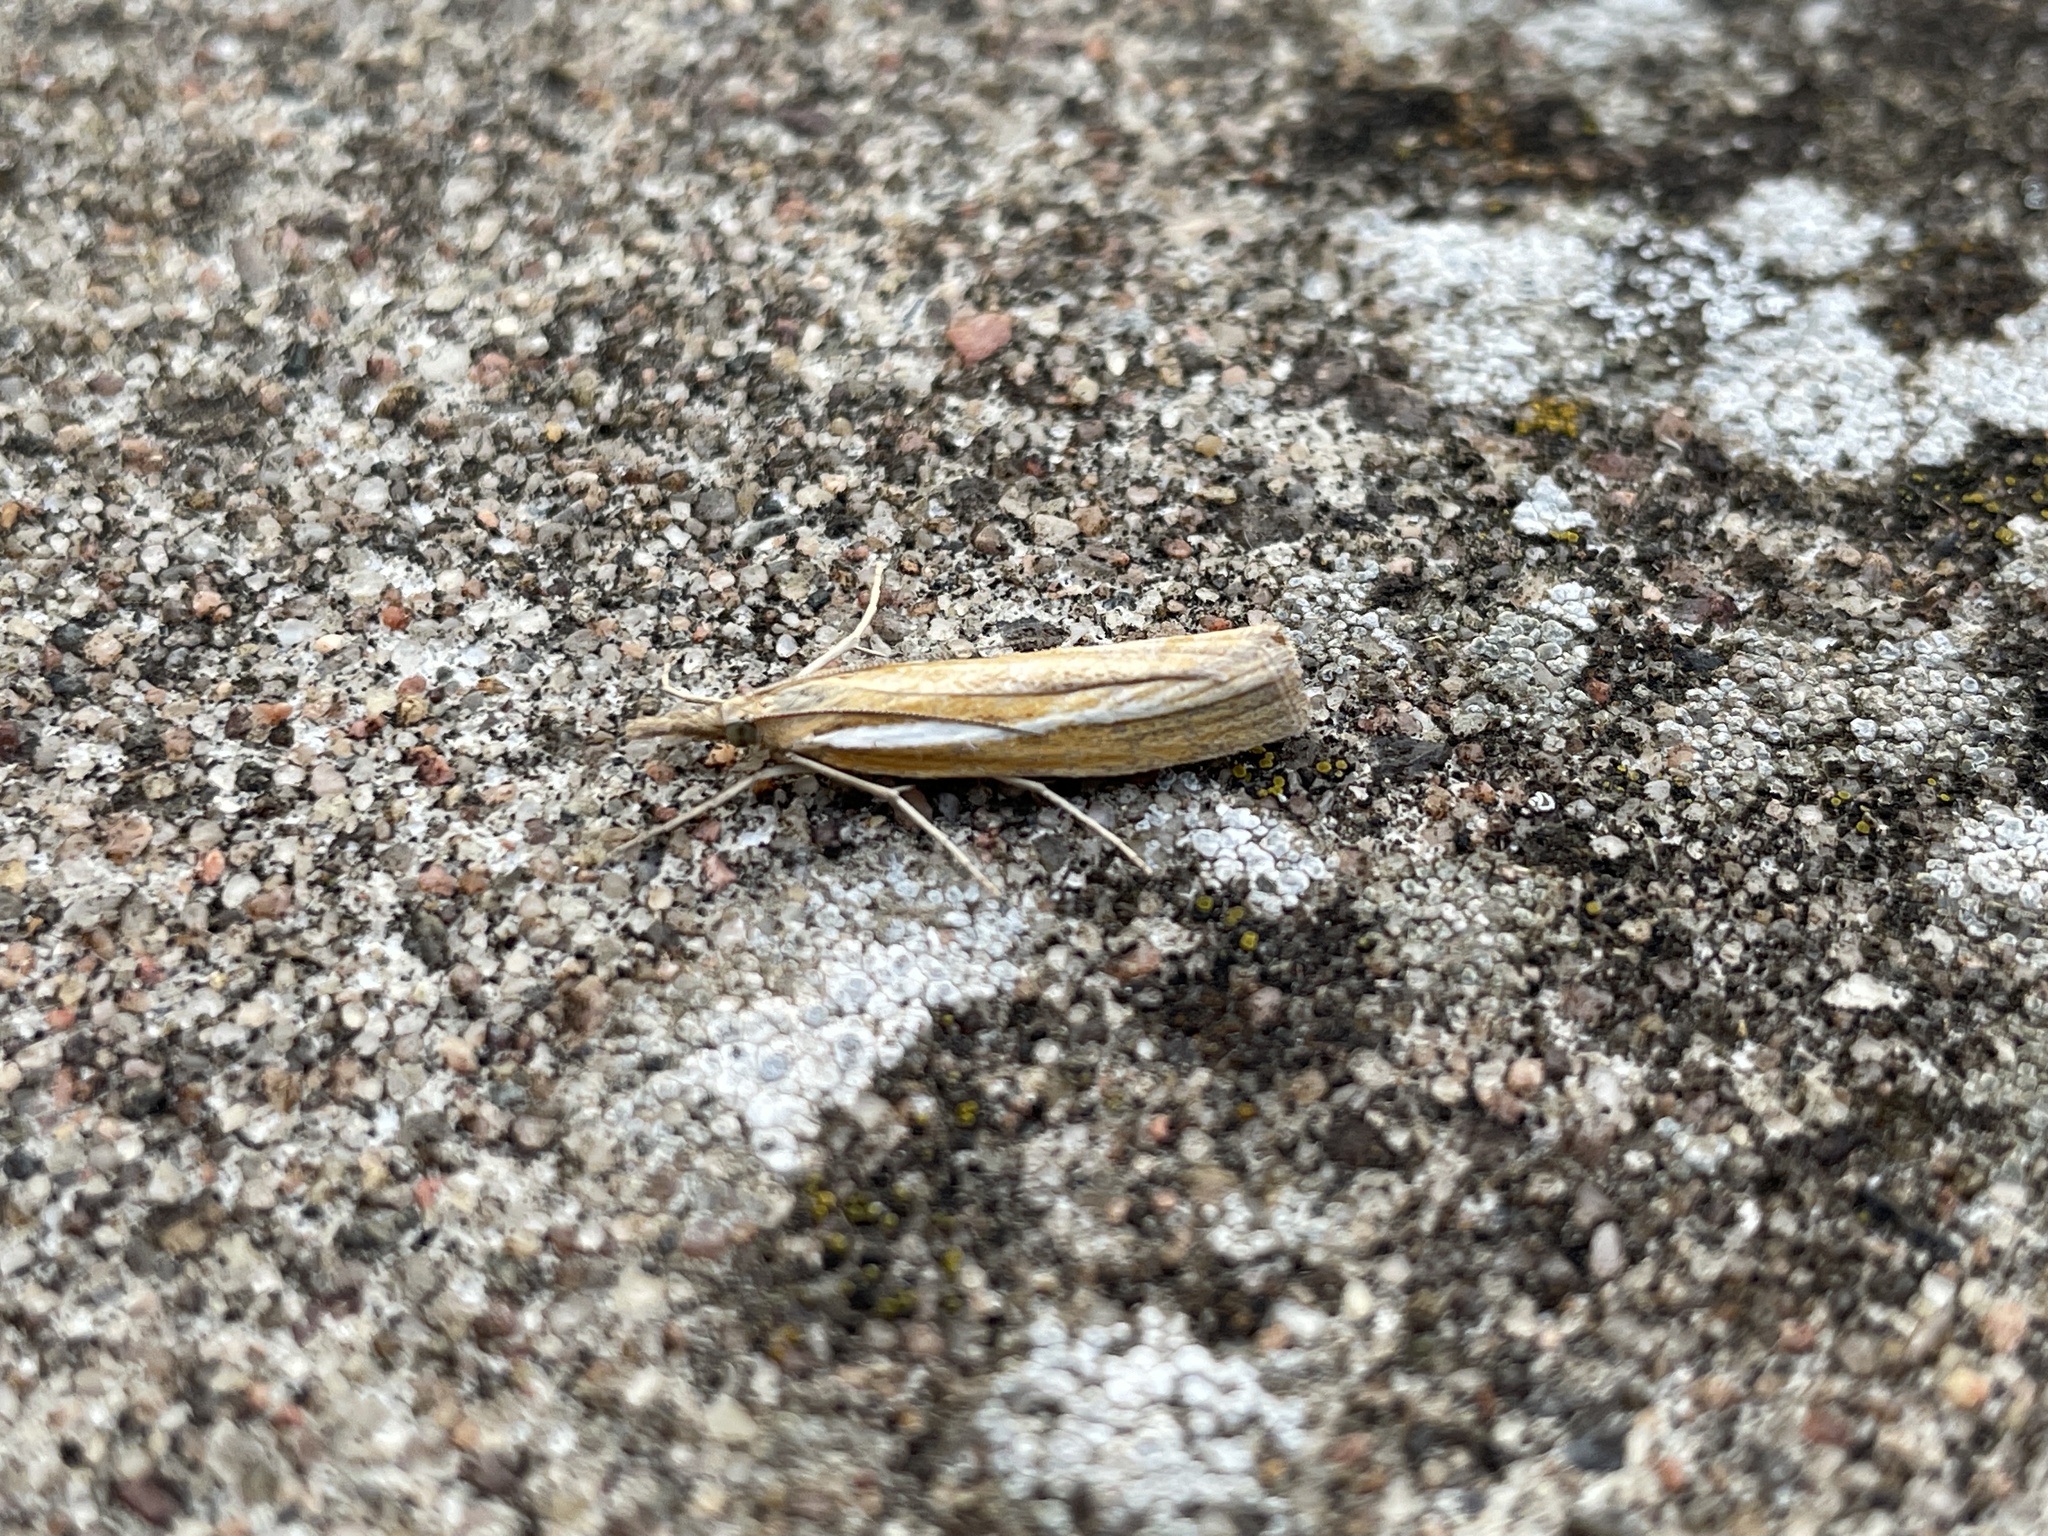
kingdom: Animalia
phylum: Arthropoda
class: Insecta
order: Lepidoptera
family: Crambidae
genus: Agriphila
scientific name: Agriphila tristellus
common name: Common grass-veneer
